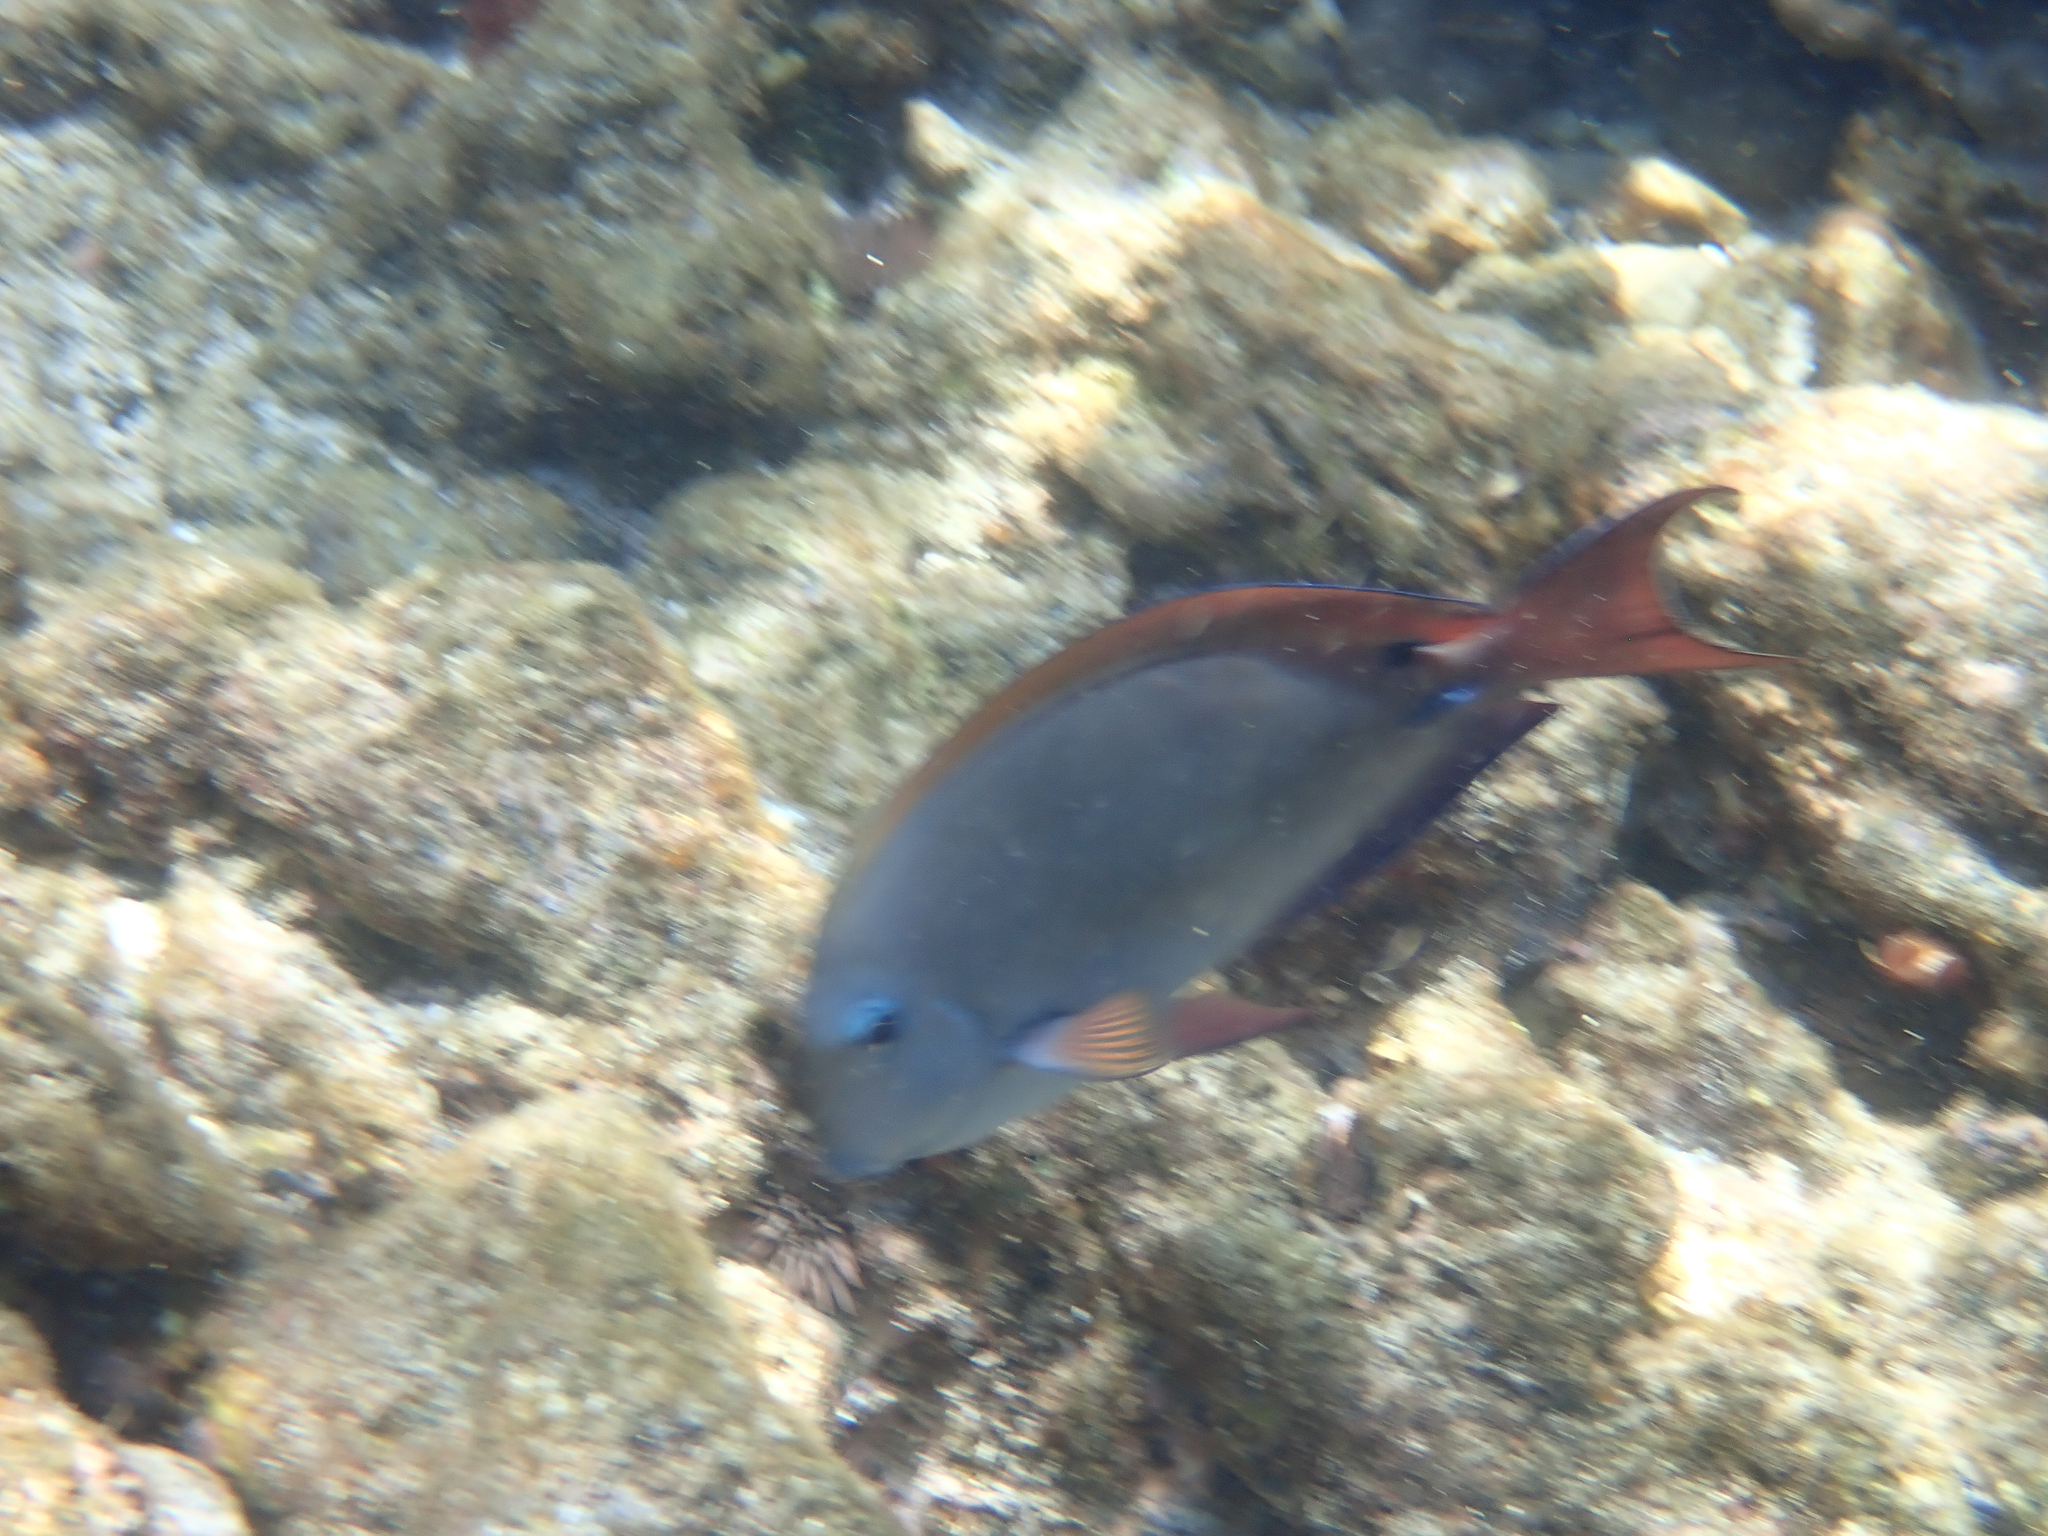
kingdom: Animalia
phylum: Chordata
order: Perciformes
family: Acanthuridae
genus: Acanthurus
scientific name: Acanthurus nigrofuscus
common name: Blackspot surgeonfish
